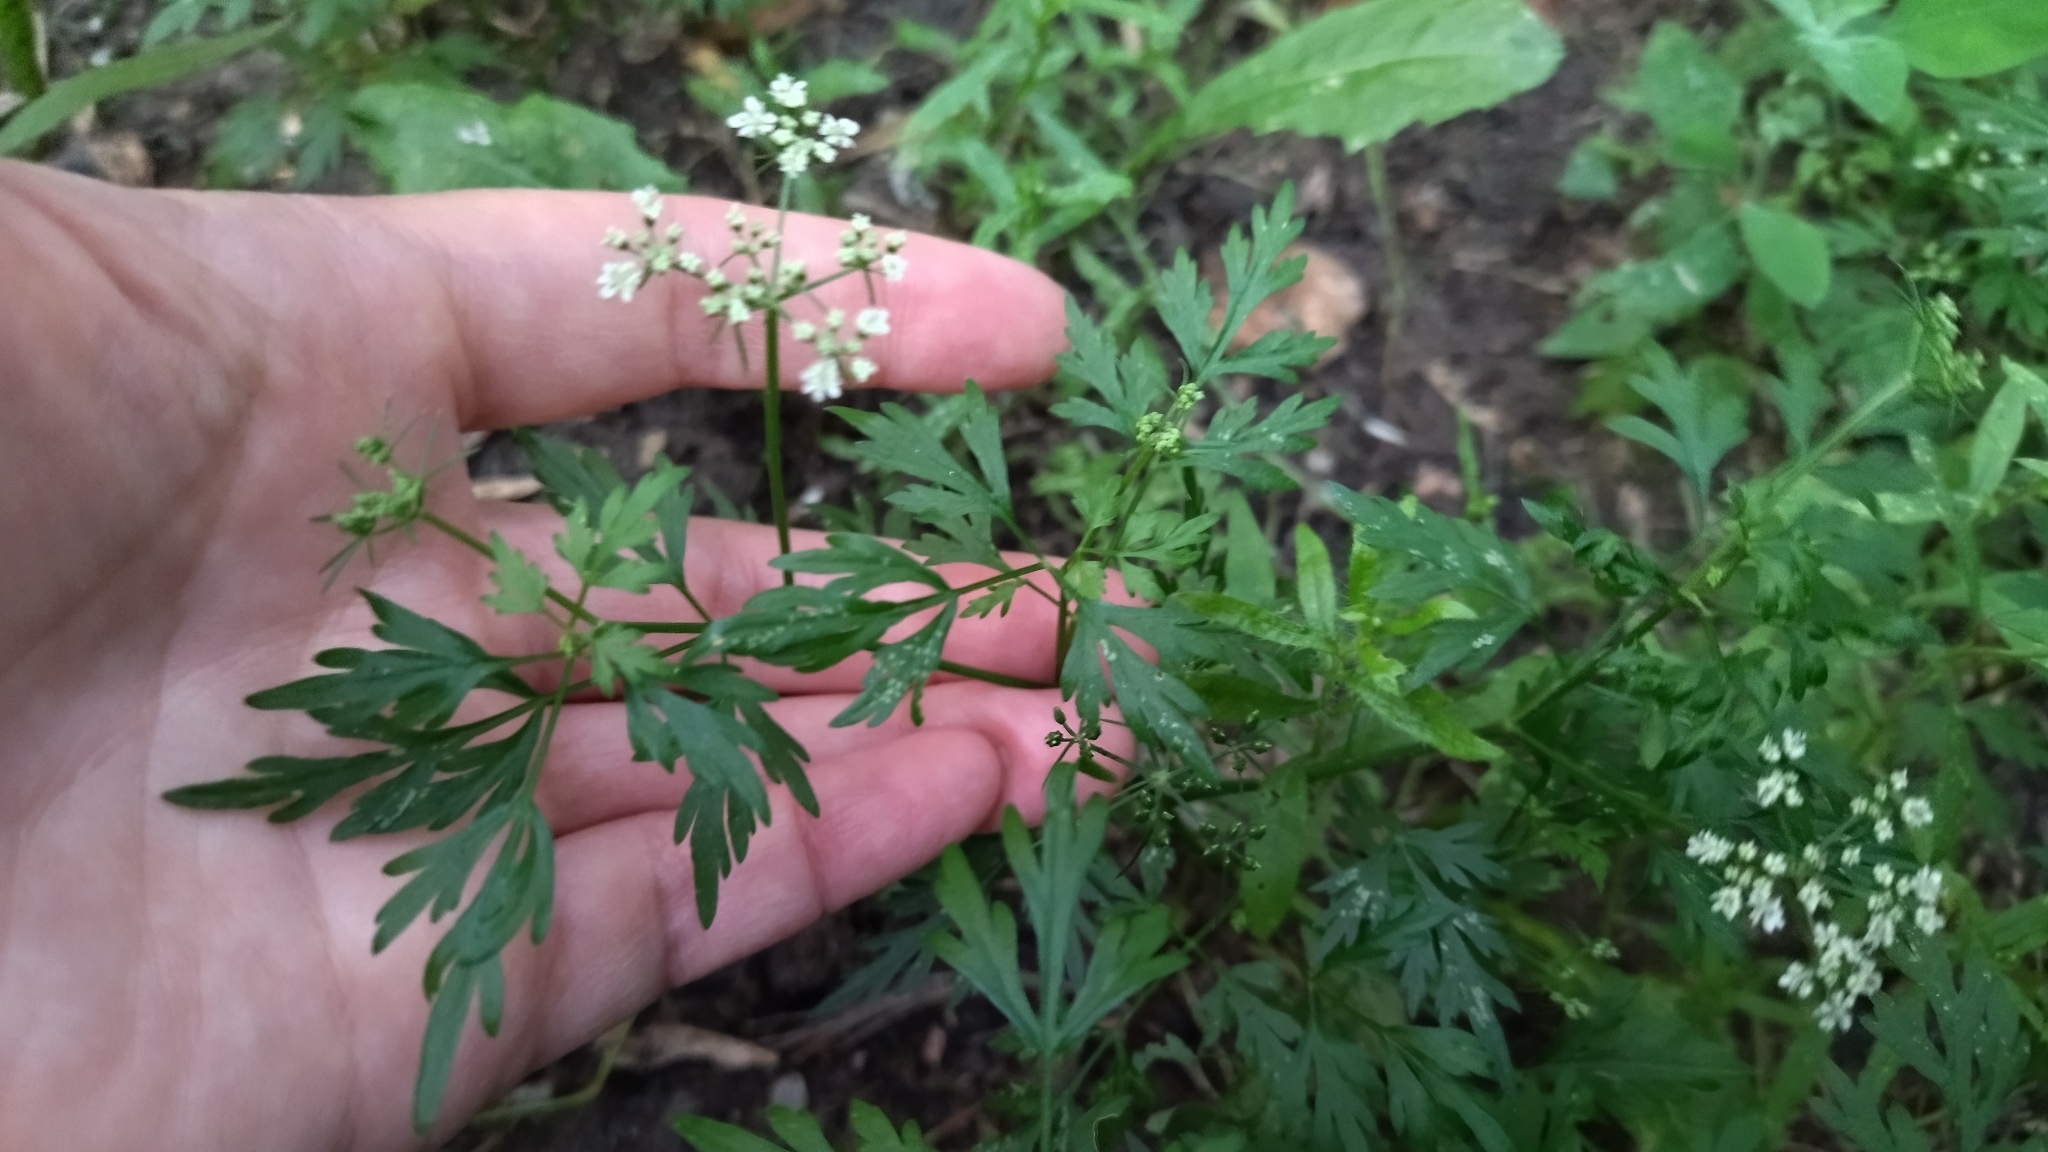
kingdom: Plantae
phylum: Tracheophyta
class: Magnoliopsida
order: Apiales
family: Apiaceae
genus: Aethusa
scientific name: Aethusa cynapium
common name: Fool's parsley
